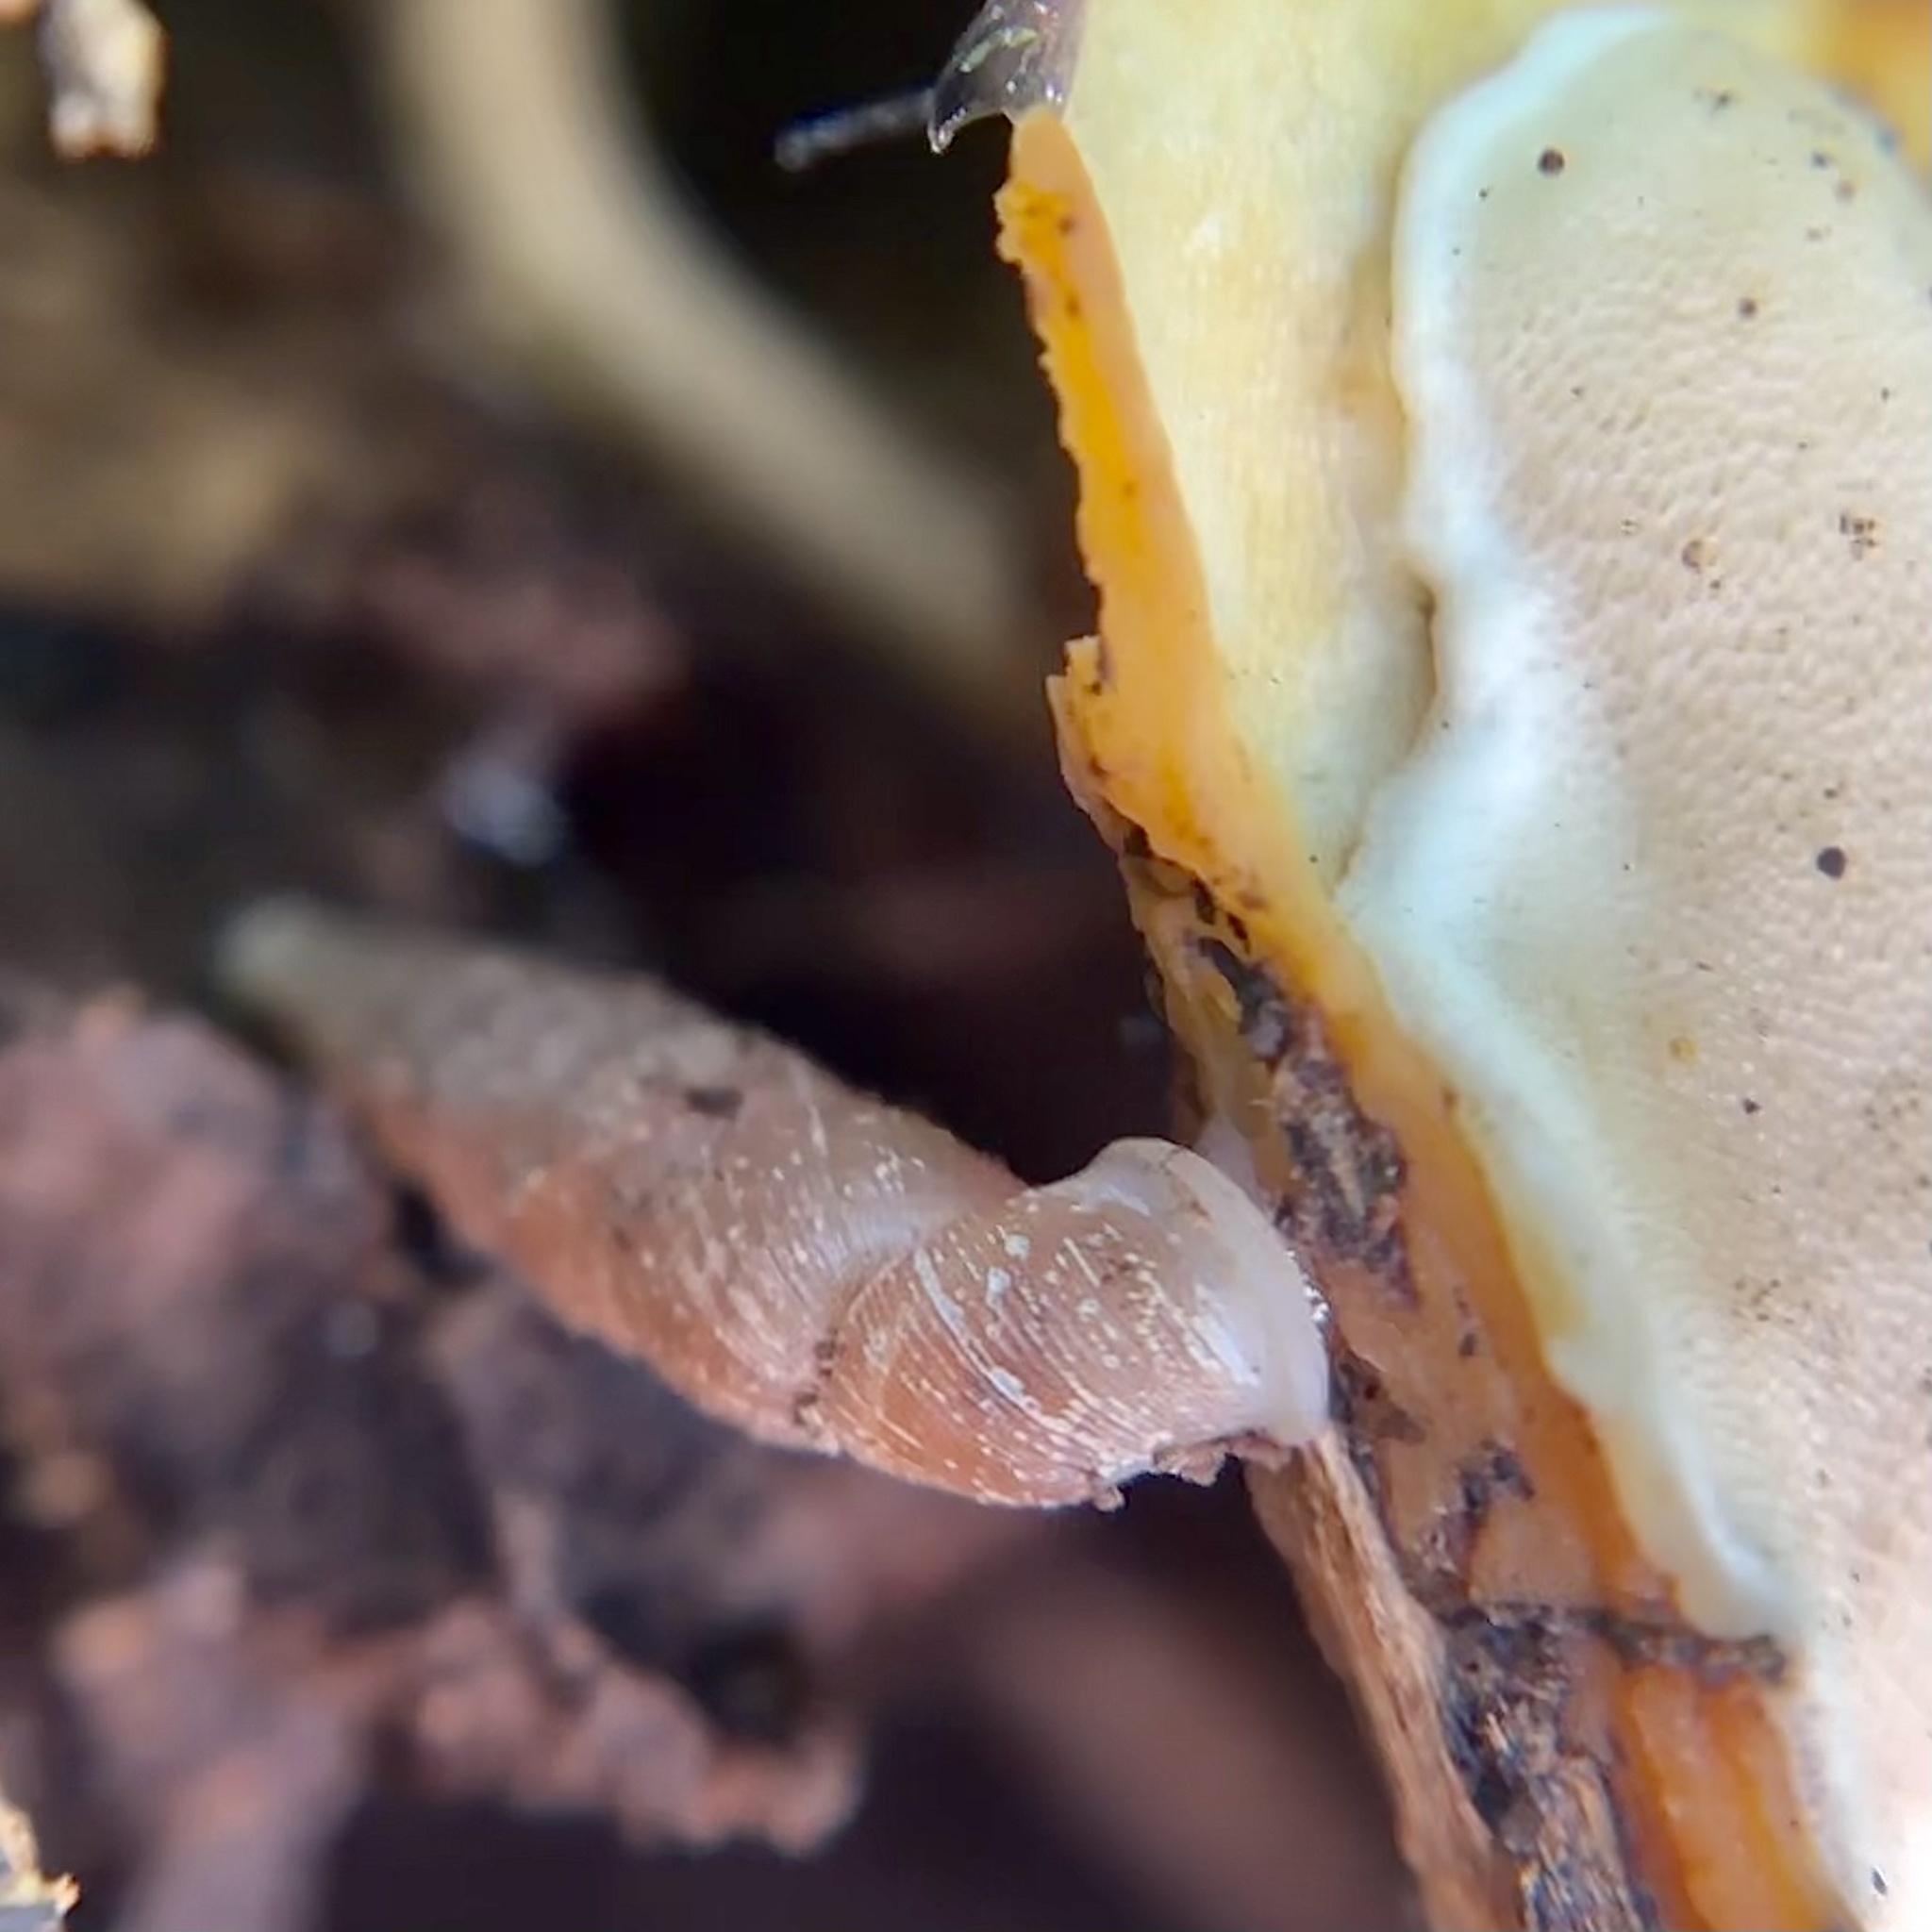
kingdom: Animalia
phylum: Mollusca
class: Gastropoda
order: Stylommatophora
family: Clausiliidae
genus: Tauphaedusa
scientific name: Tauphaedusa tau
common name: Snail
